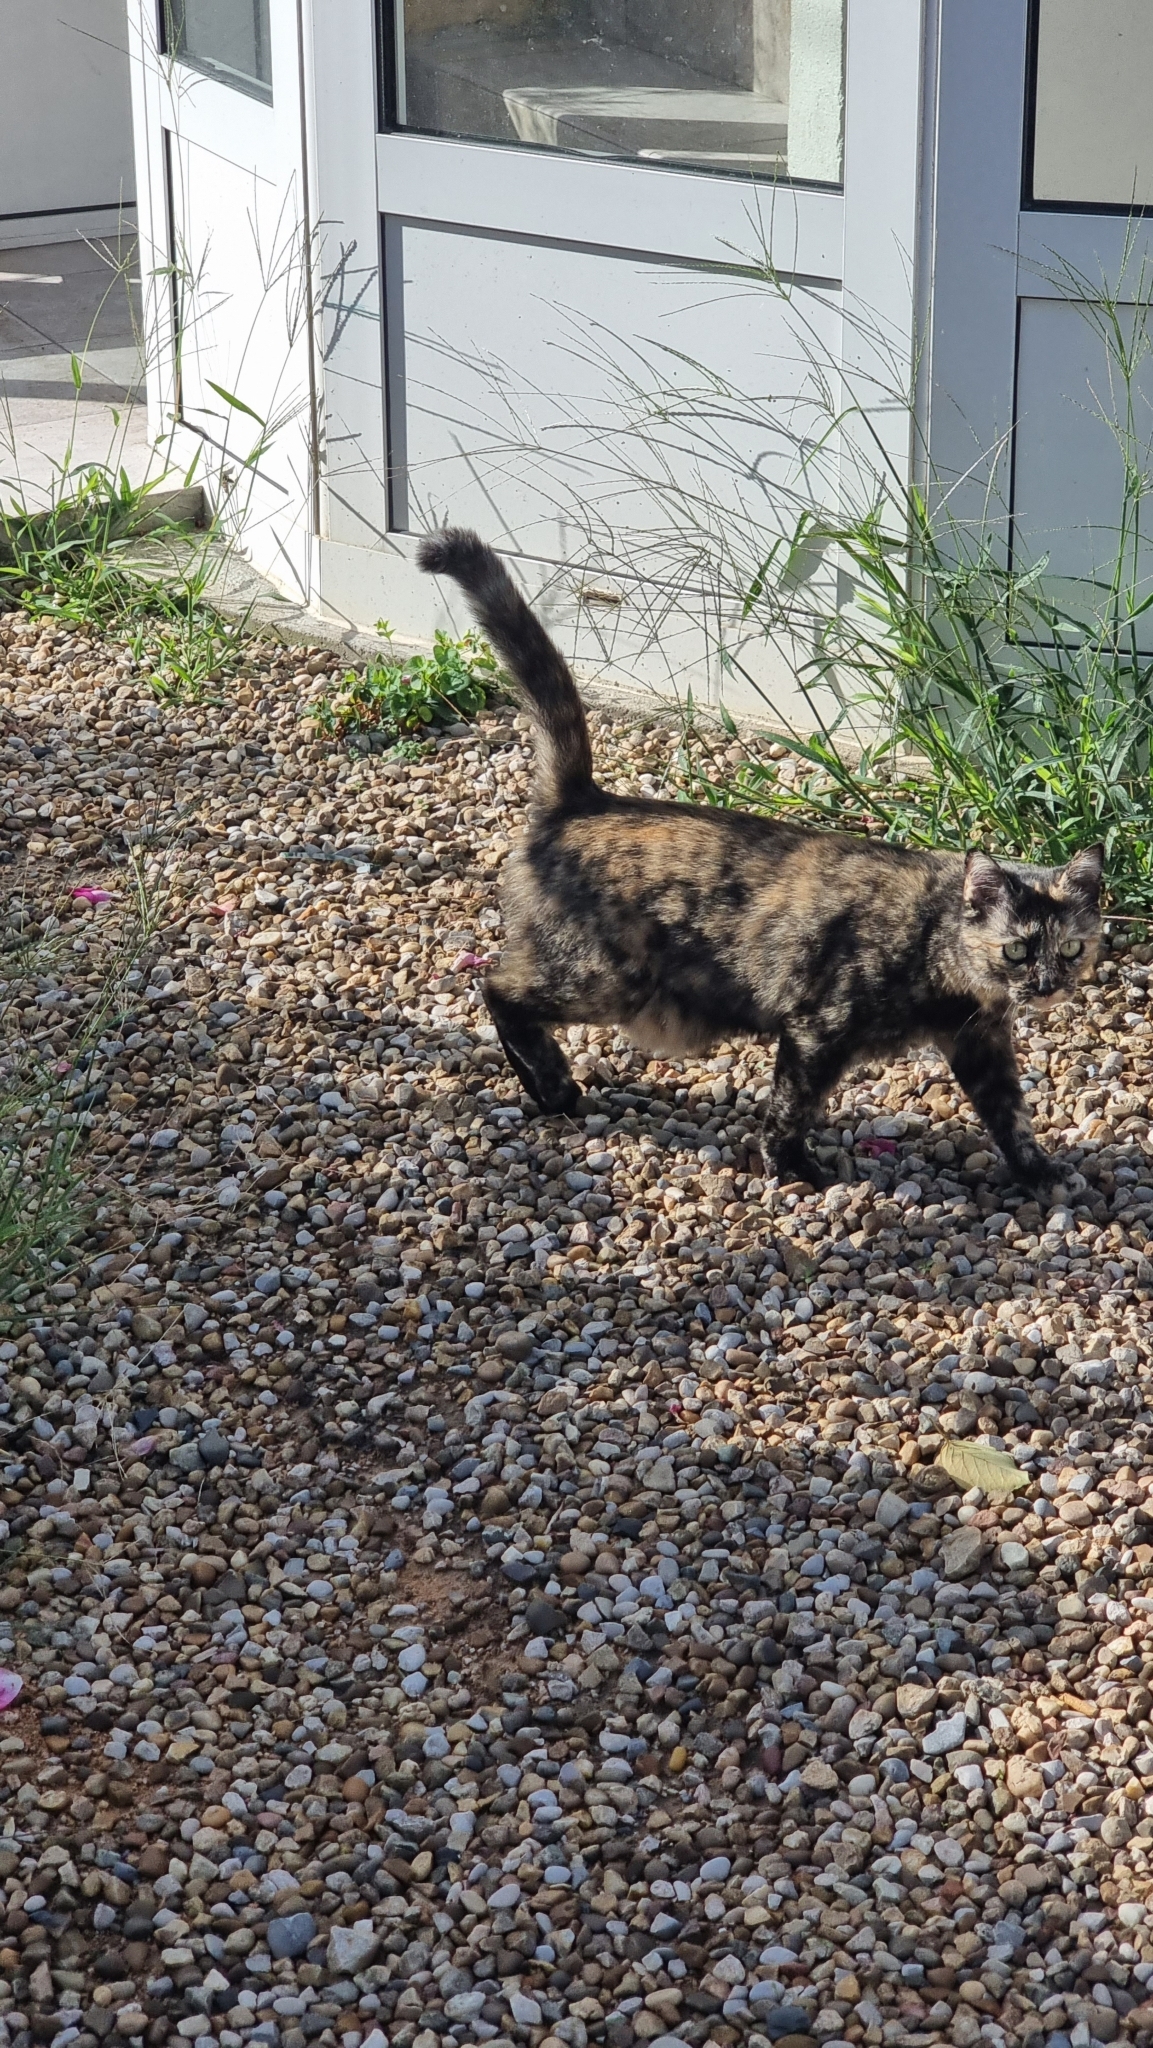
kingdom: Animalia
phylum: Chordata
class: Mammalia
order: Carnivora
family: Felidae
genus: Felis
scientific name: Felis catus
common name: Domestic cat
